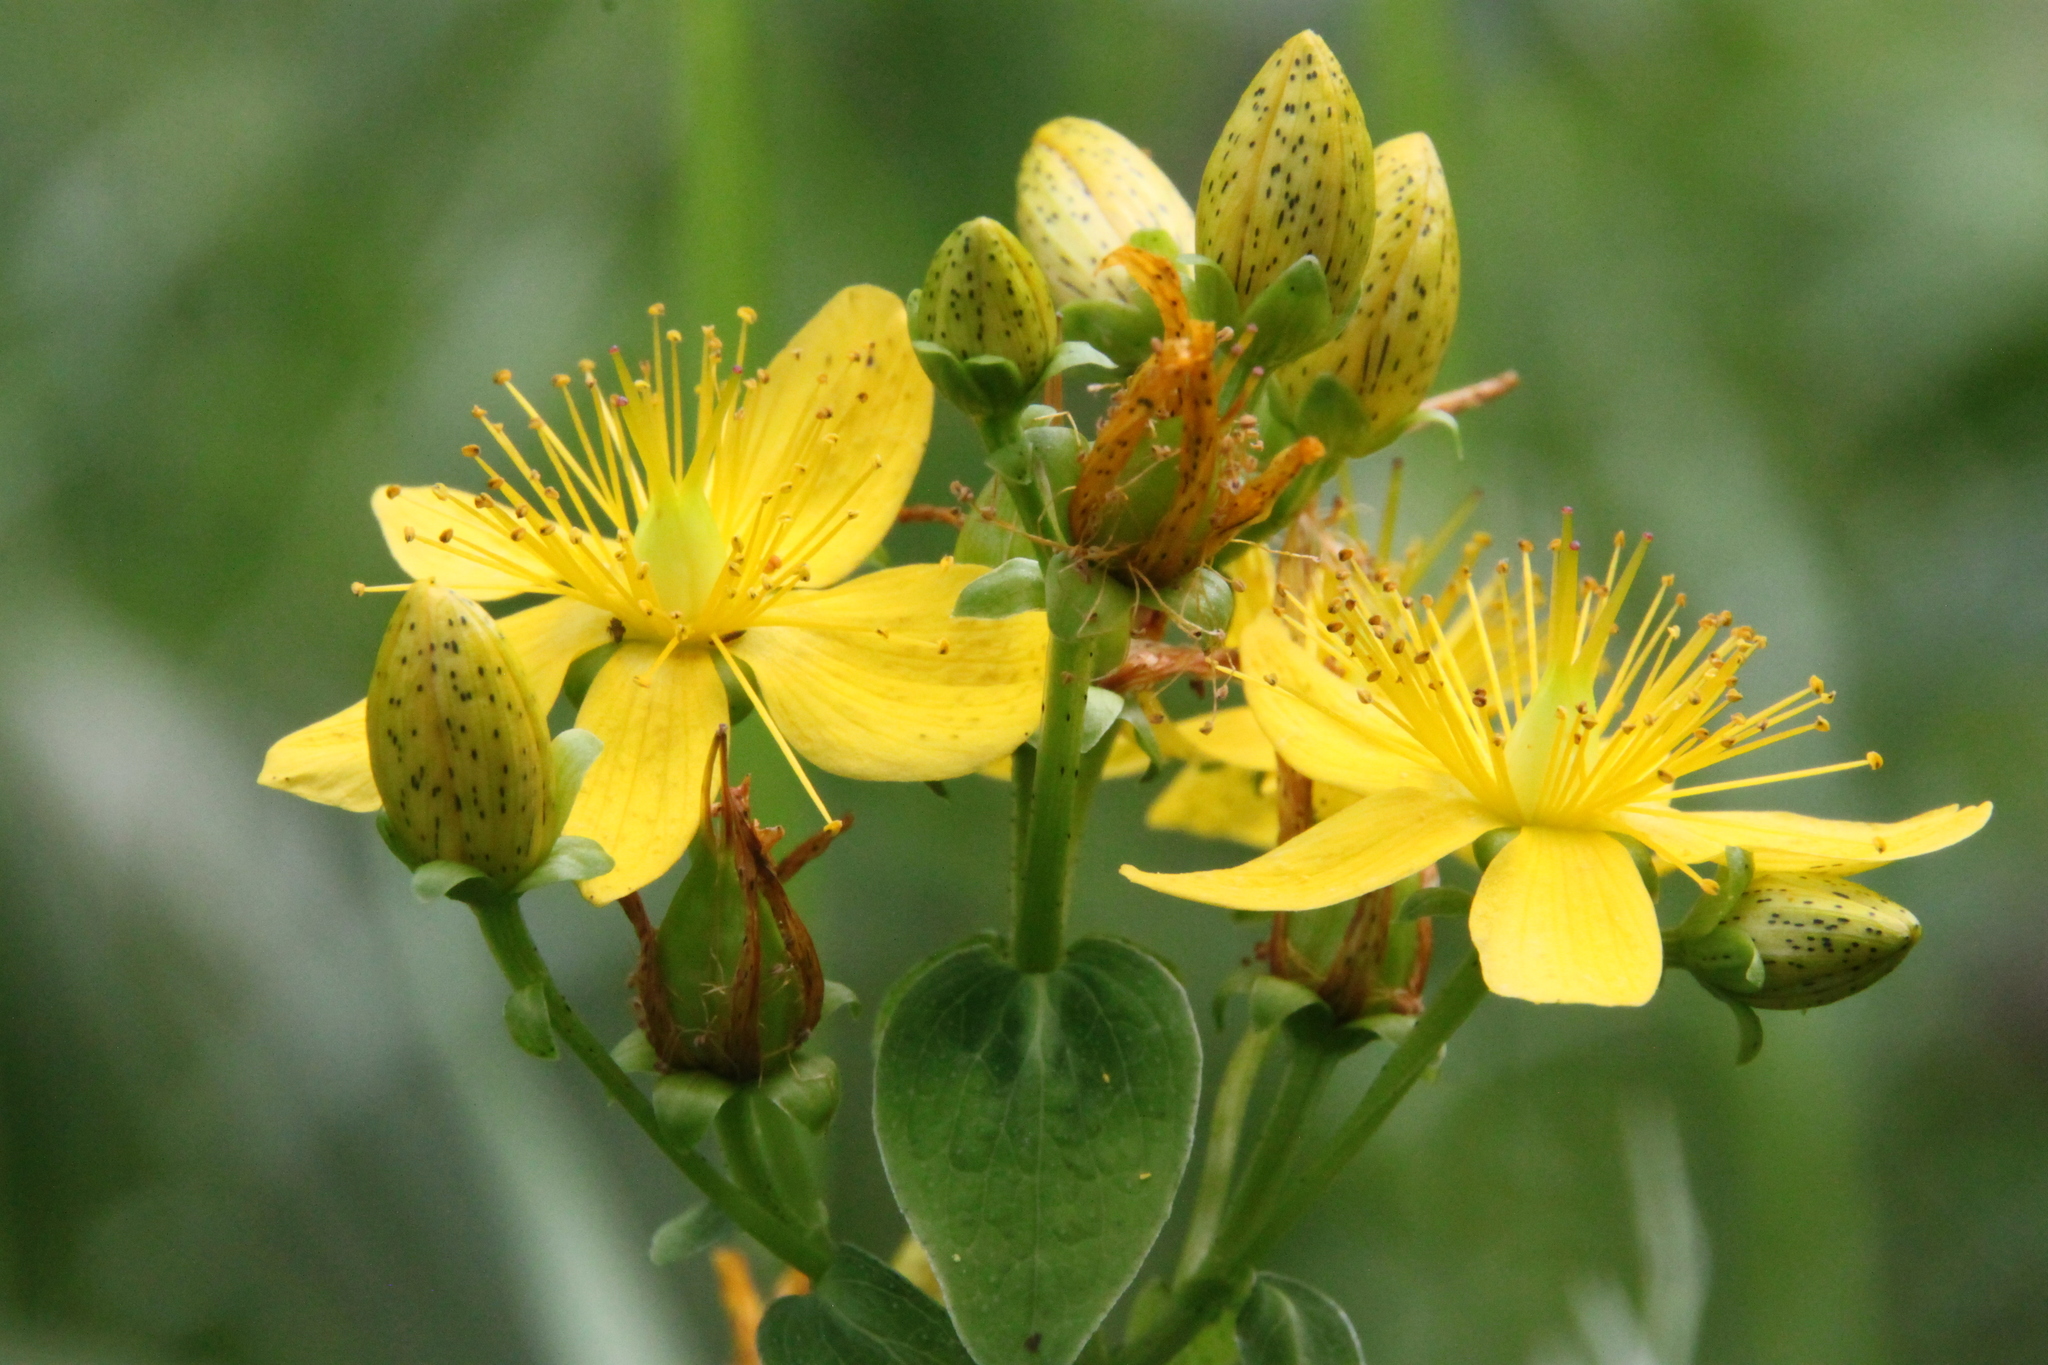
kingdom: Plantae
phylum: Tracheophyta
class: Magnoliopsida
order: Malpighiales
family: Hypericaceae
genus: Hypericum
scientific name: Hypericum maculatum
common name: Imperforate st. john's-wort
